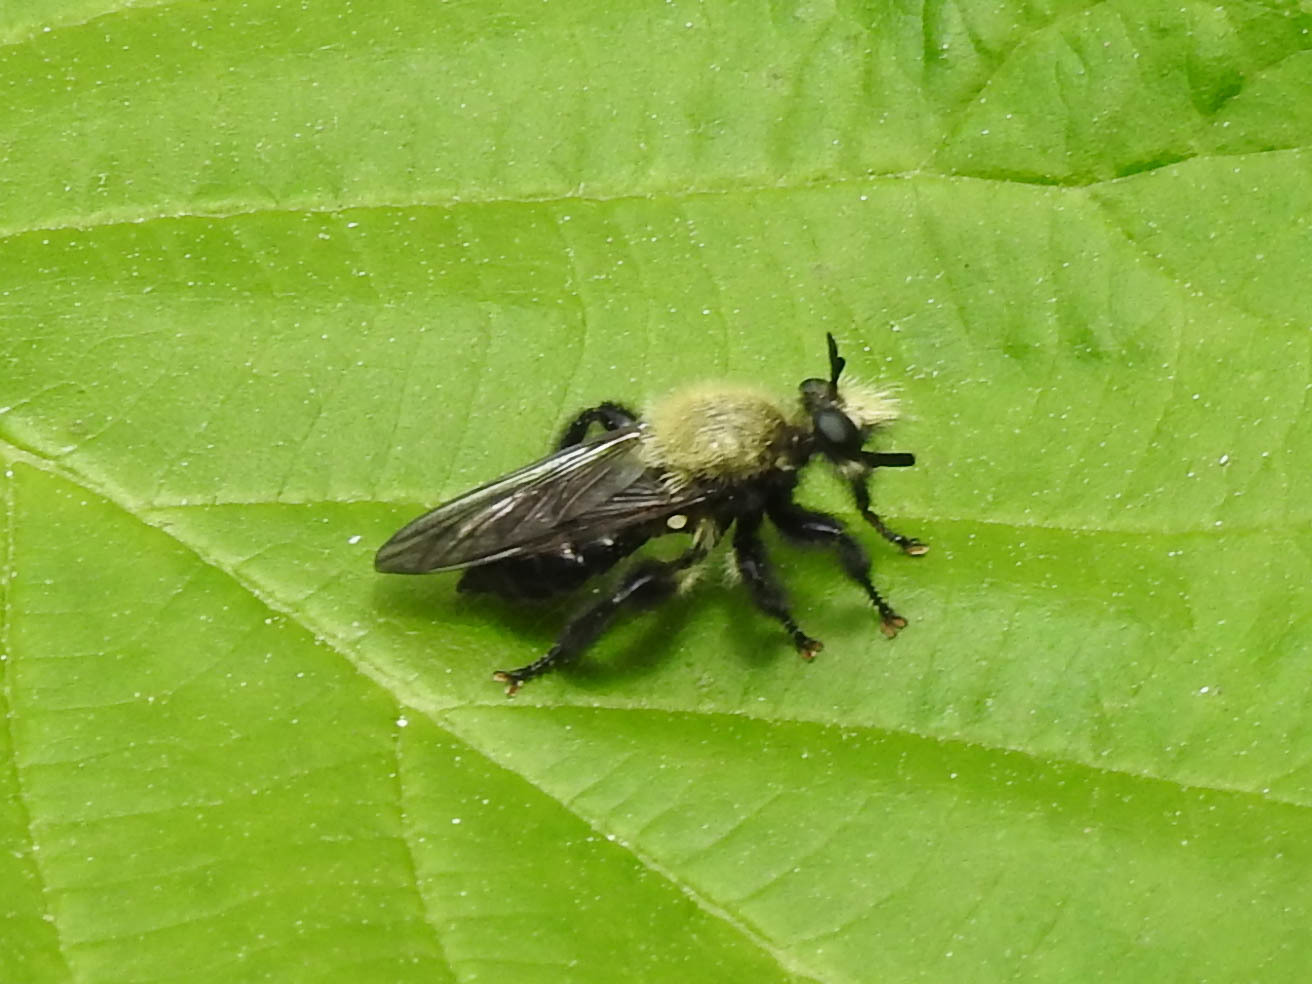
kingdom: Animalia
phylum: Arthropoda
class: Insecta
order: Diptera
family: Asilidae
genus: Laphria
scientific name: Laphria flavicollis
